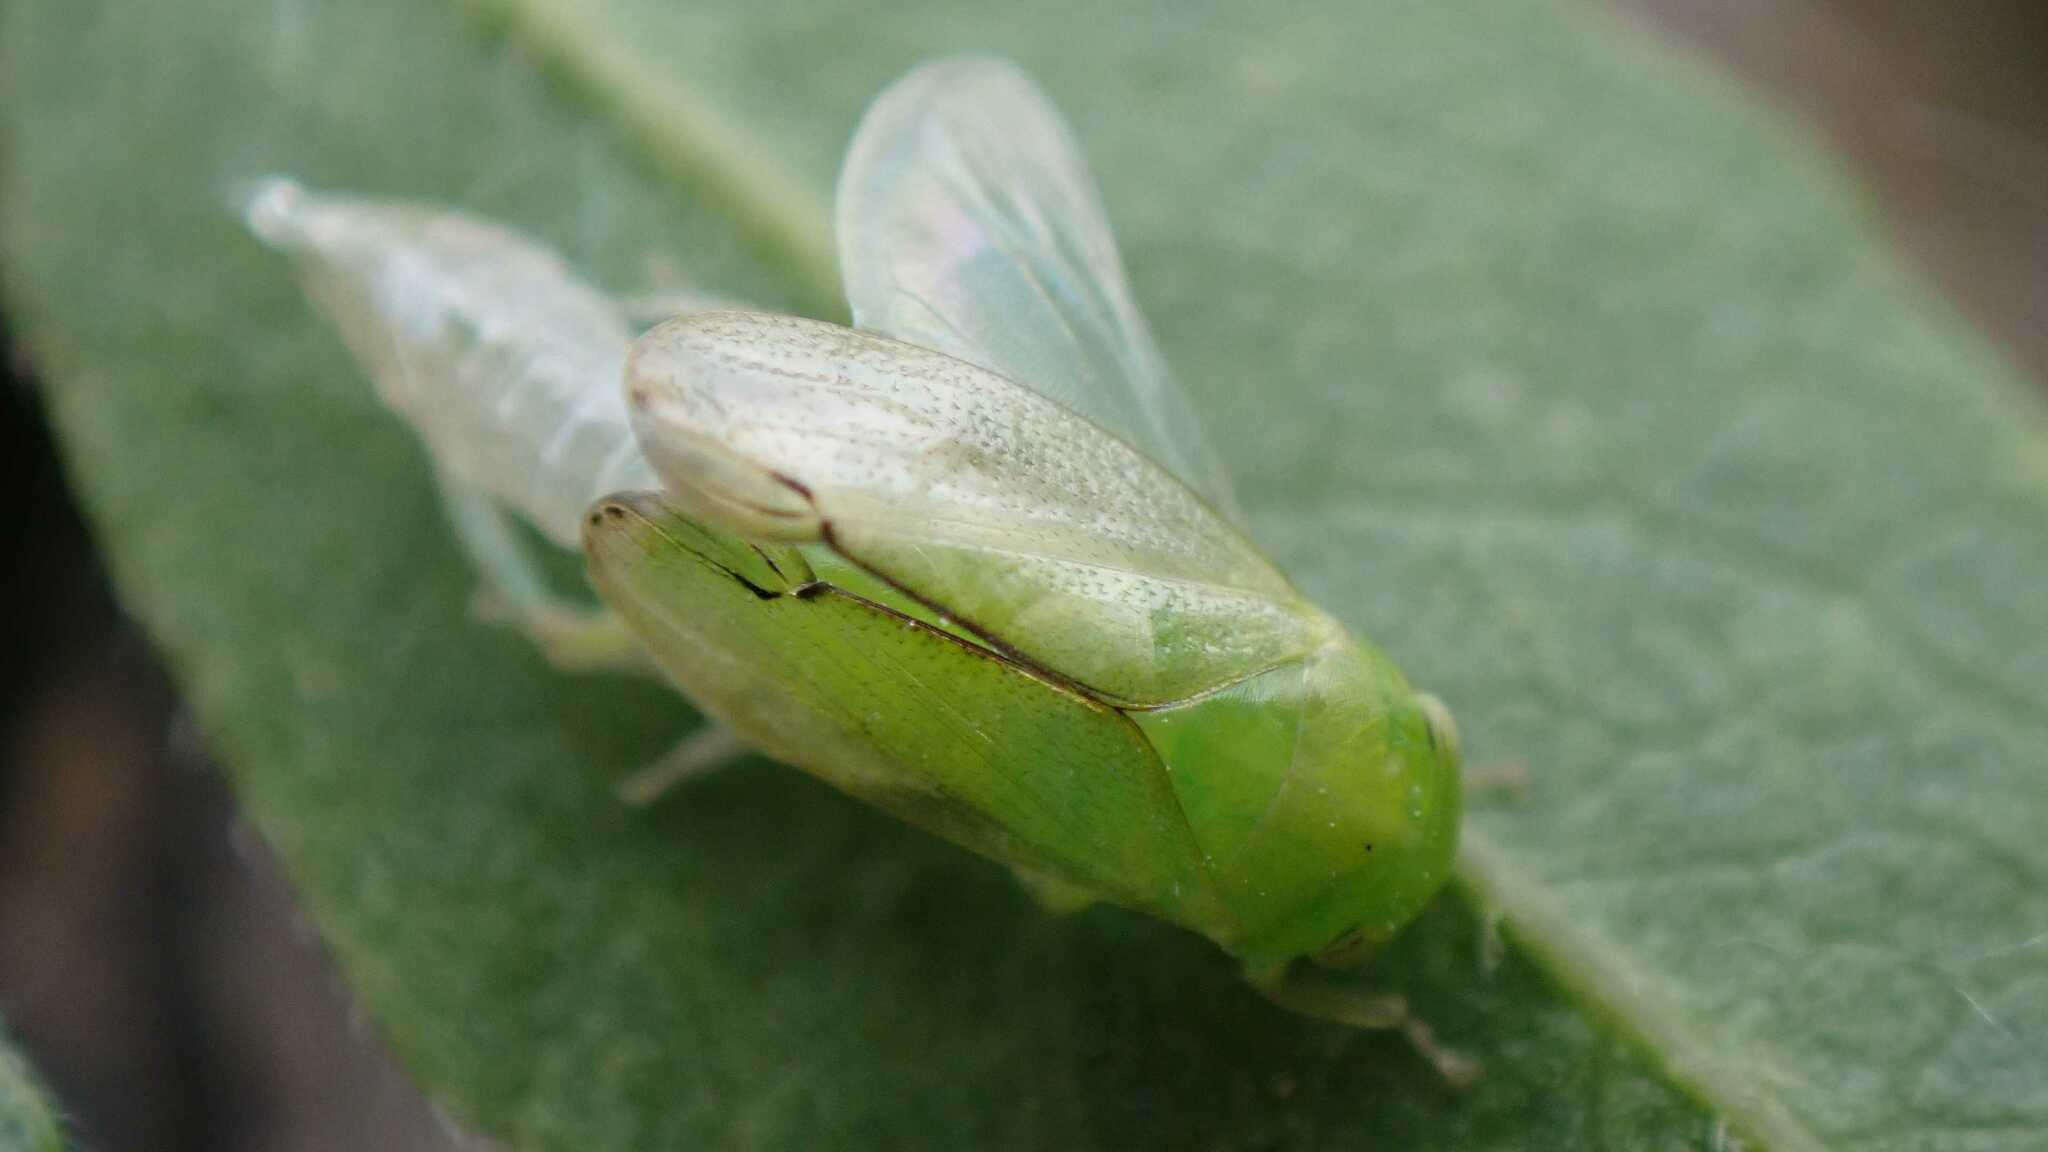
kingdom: Animalia
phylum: Arthropoda
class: Insecta
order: Hemiptera
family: Cicadellidae
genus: Stragania
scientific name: Stragania apicalis
